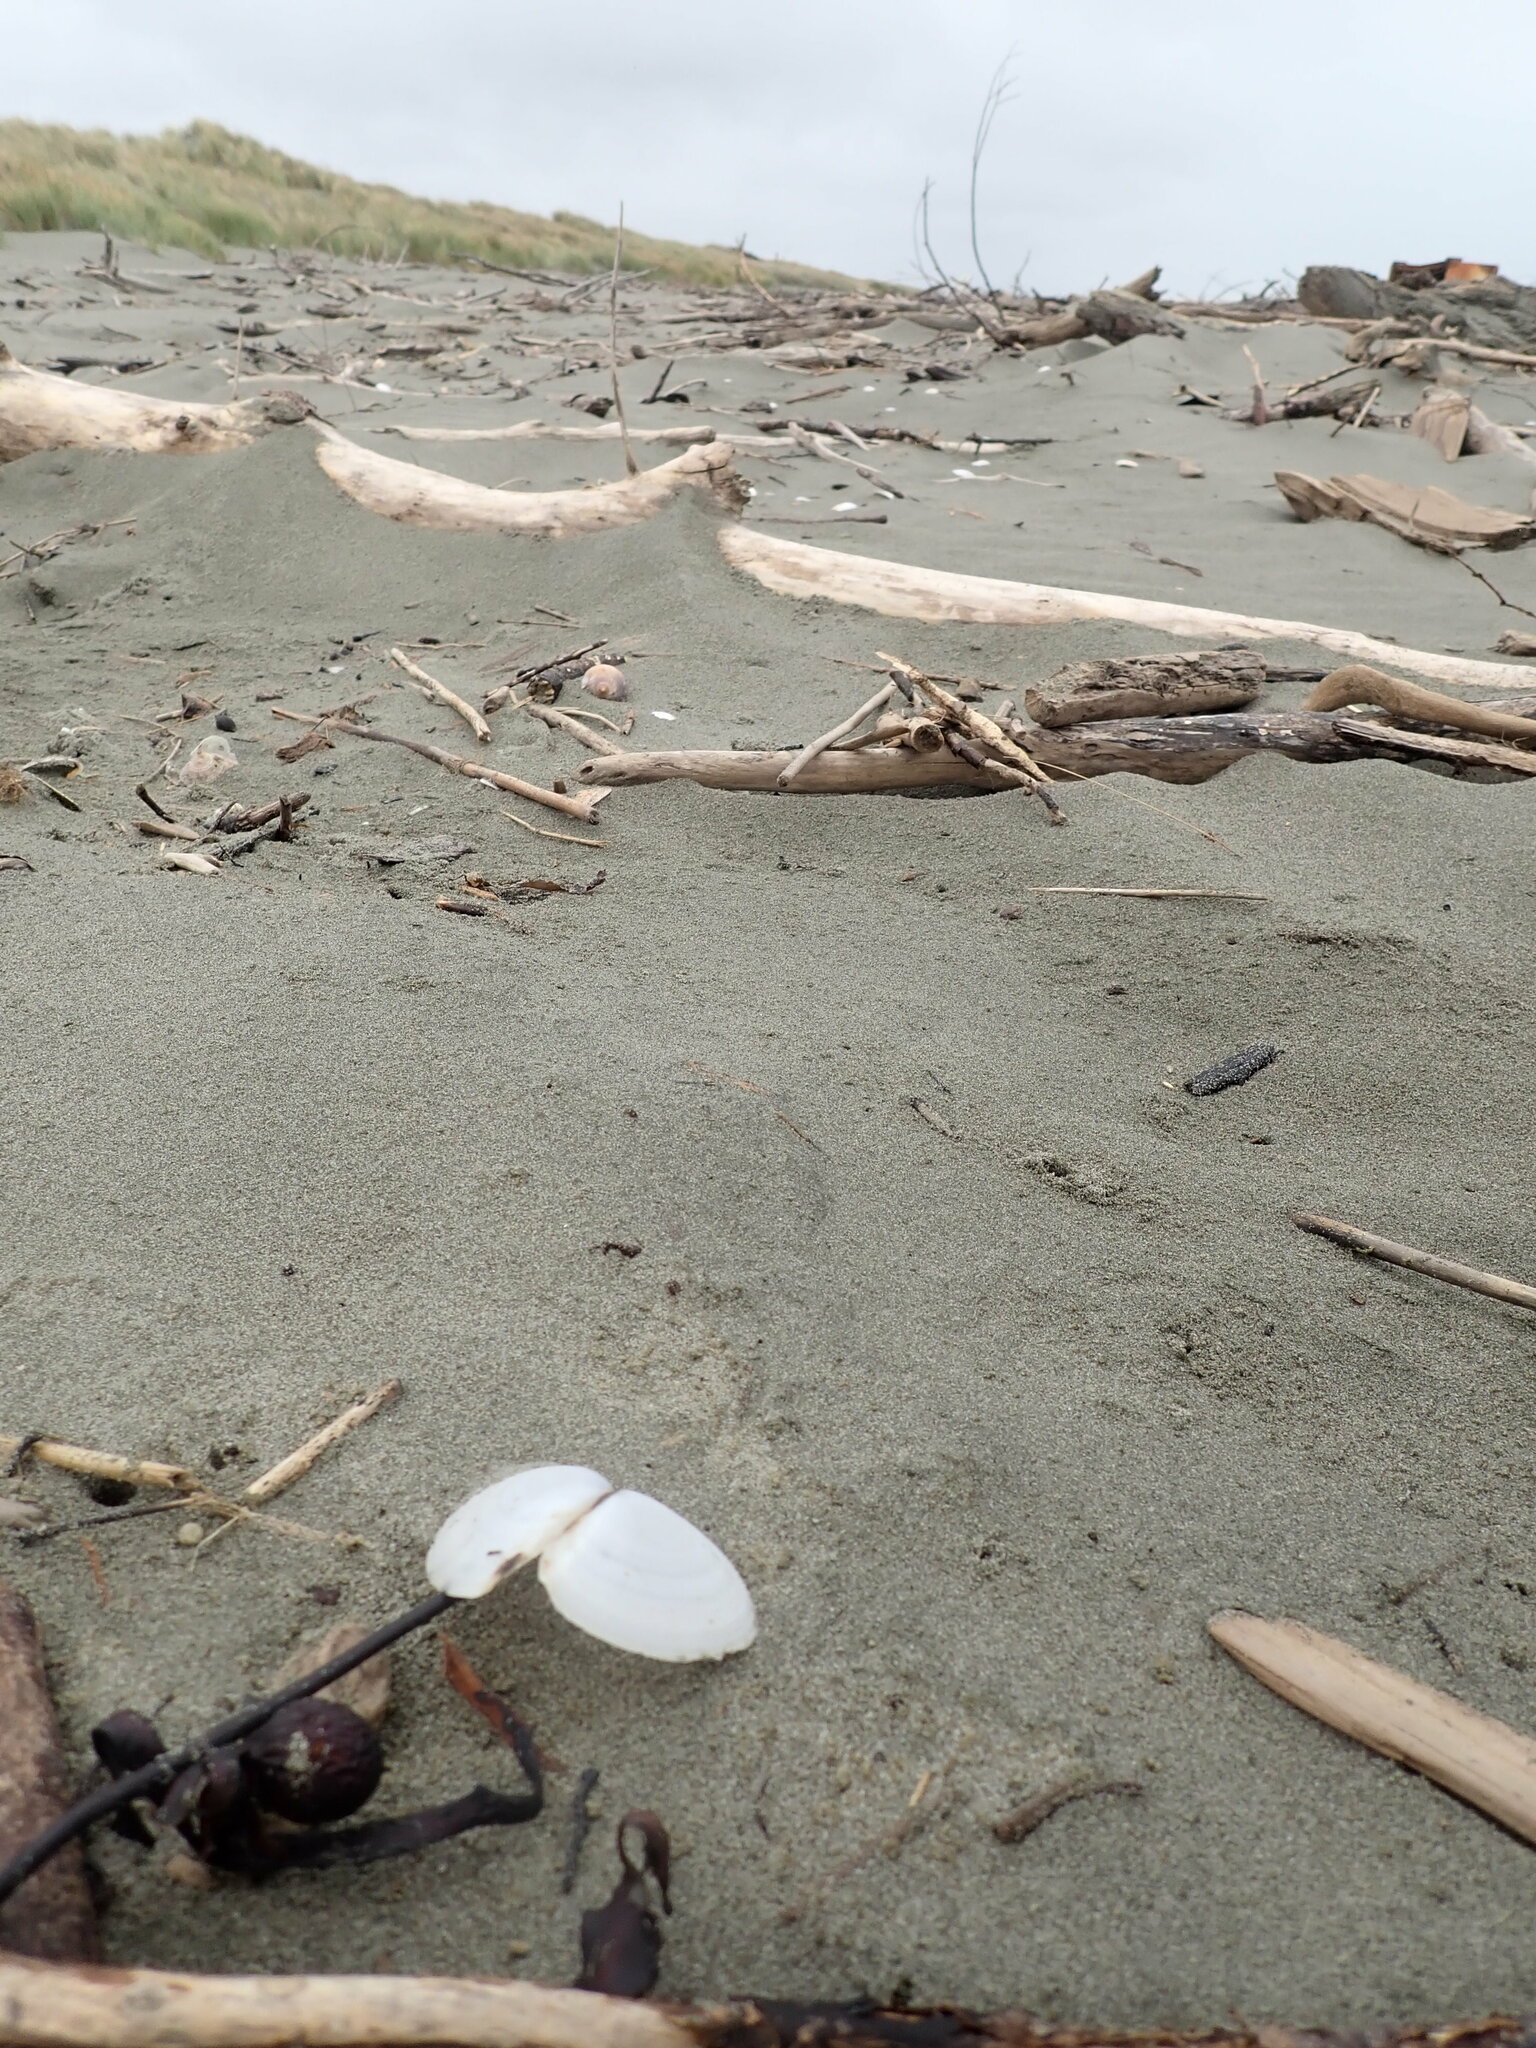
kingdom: Animalia
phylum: Mollusca
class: Bivalvia
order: Cardiida
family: Tellinidae
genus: Bartschicoma
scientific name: Bartschicoma gaimardi
